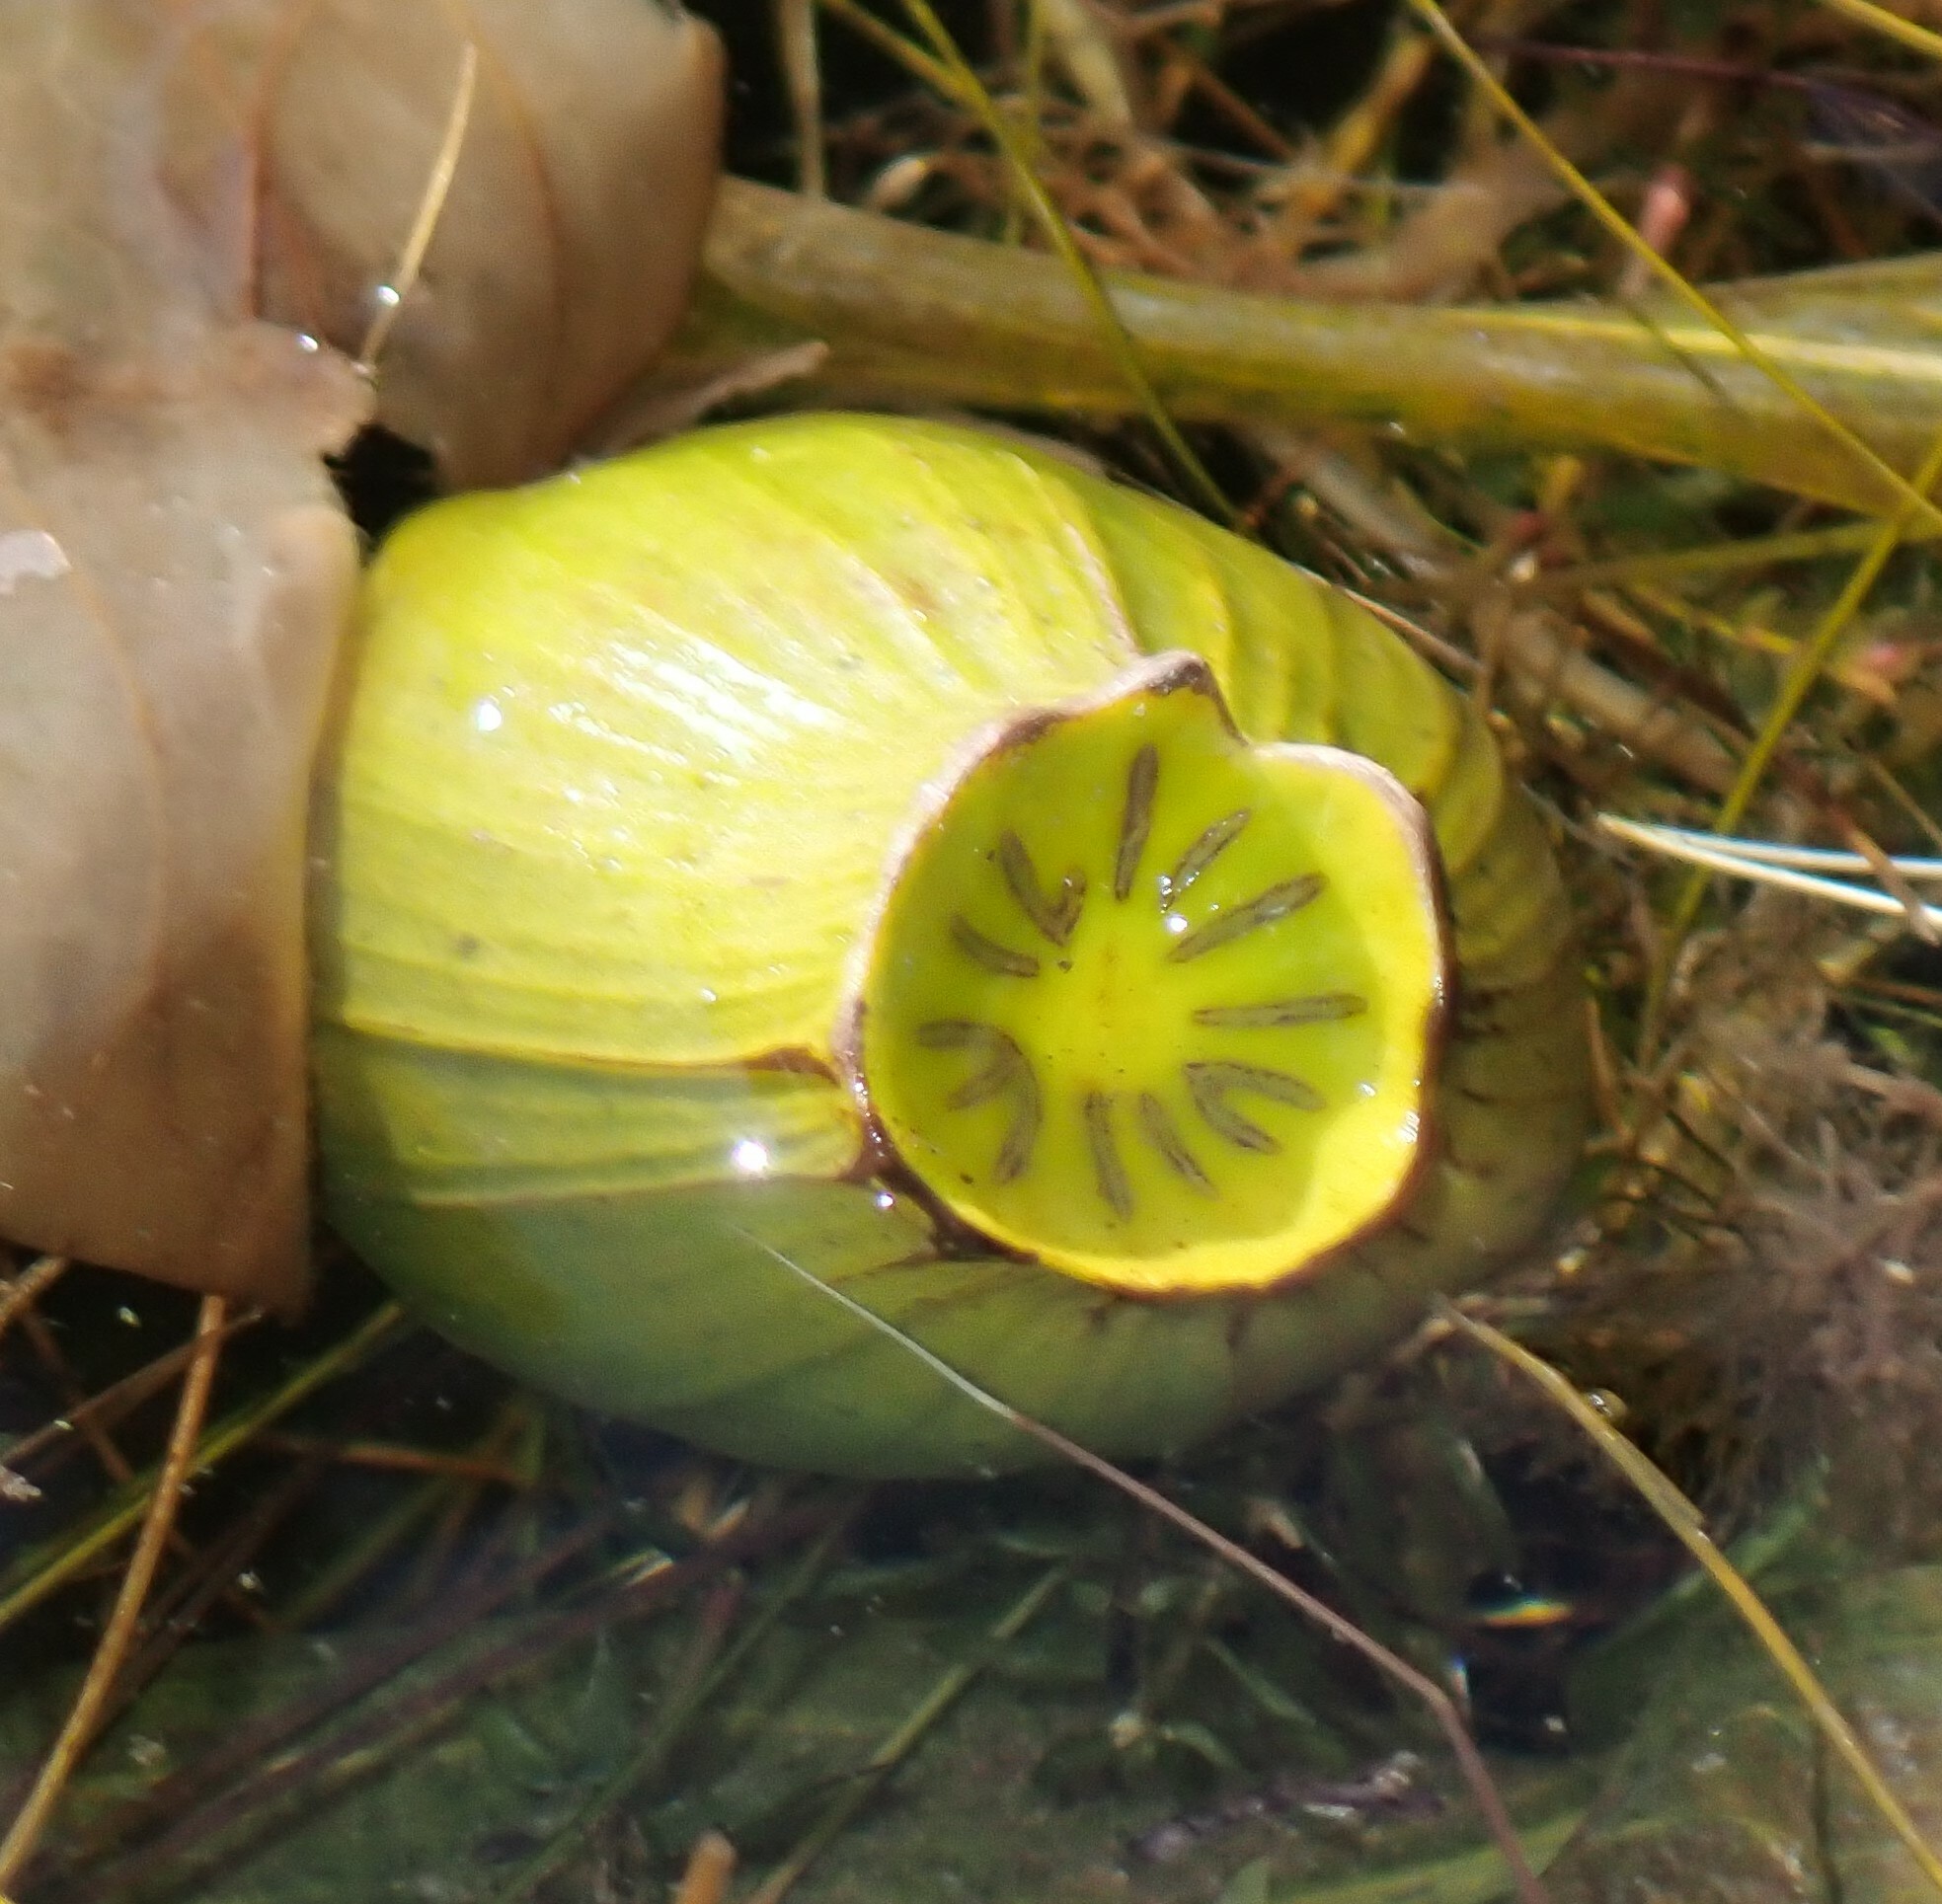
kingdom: Plantae
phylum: Tracheophyta
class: Magnoliopsida
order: Nymphaeales
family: Nymphaeaceae
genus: Nuphar
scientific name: Nuphar variegata
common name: Beaver-root
